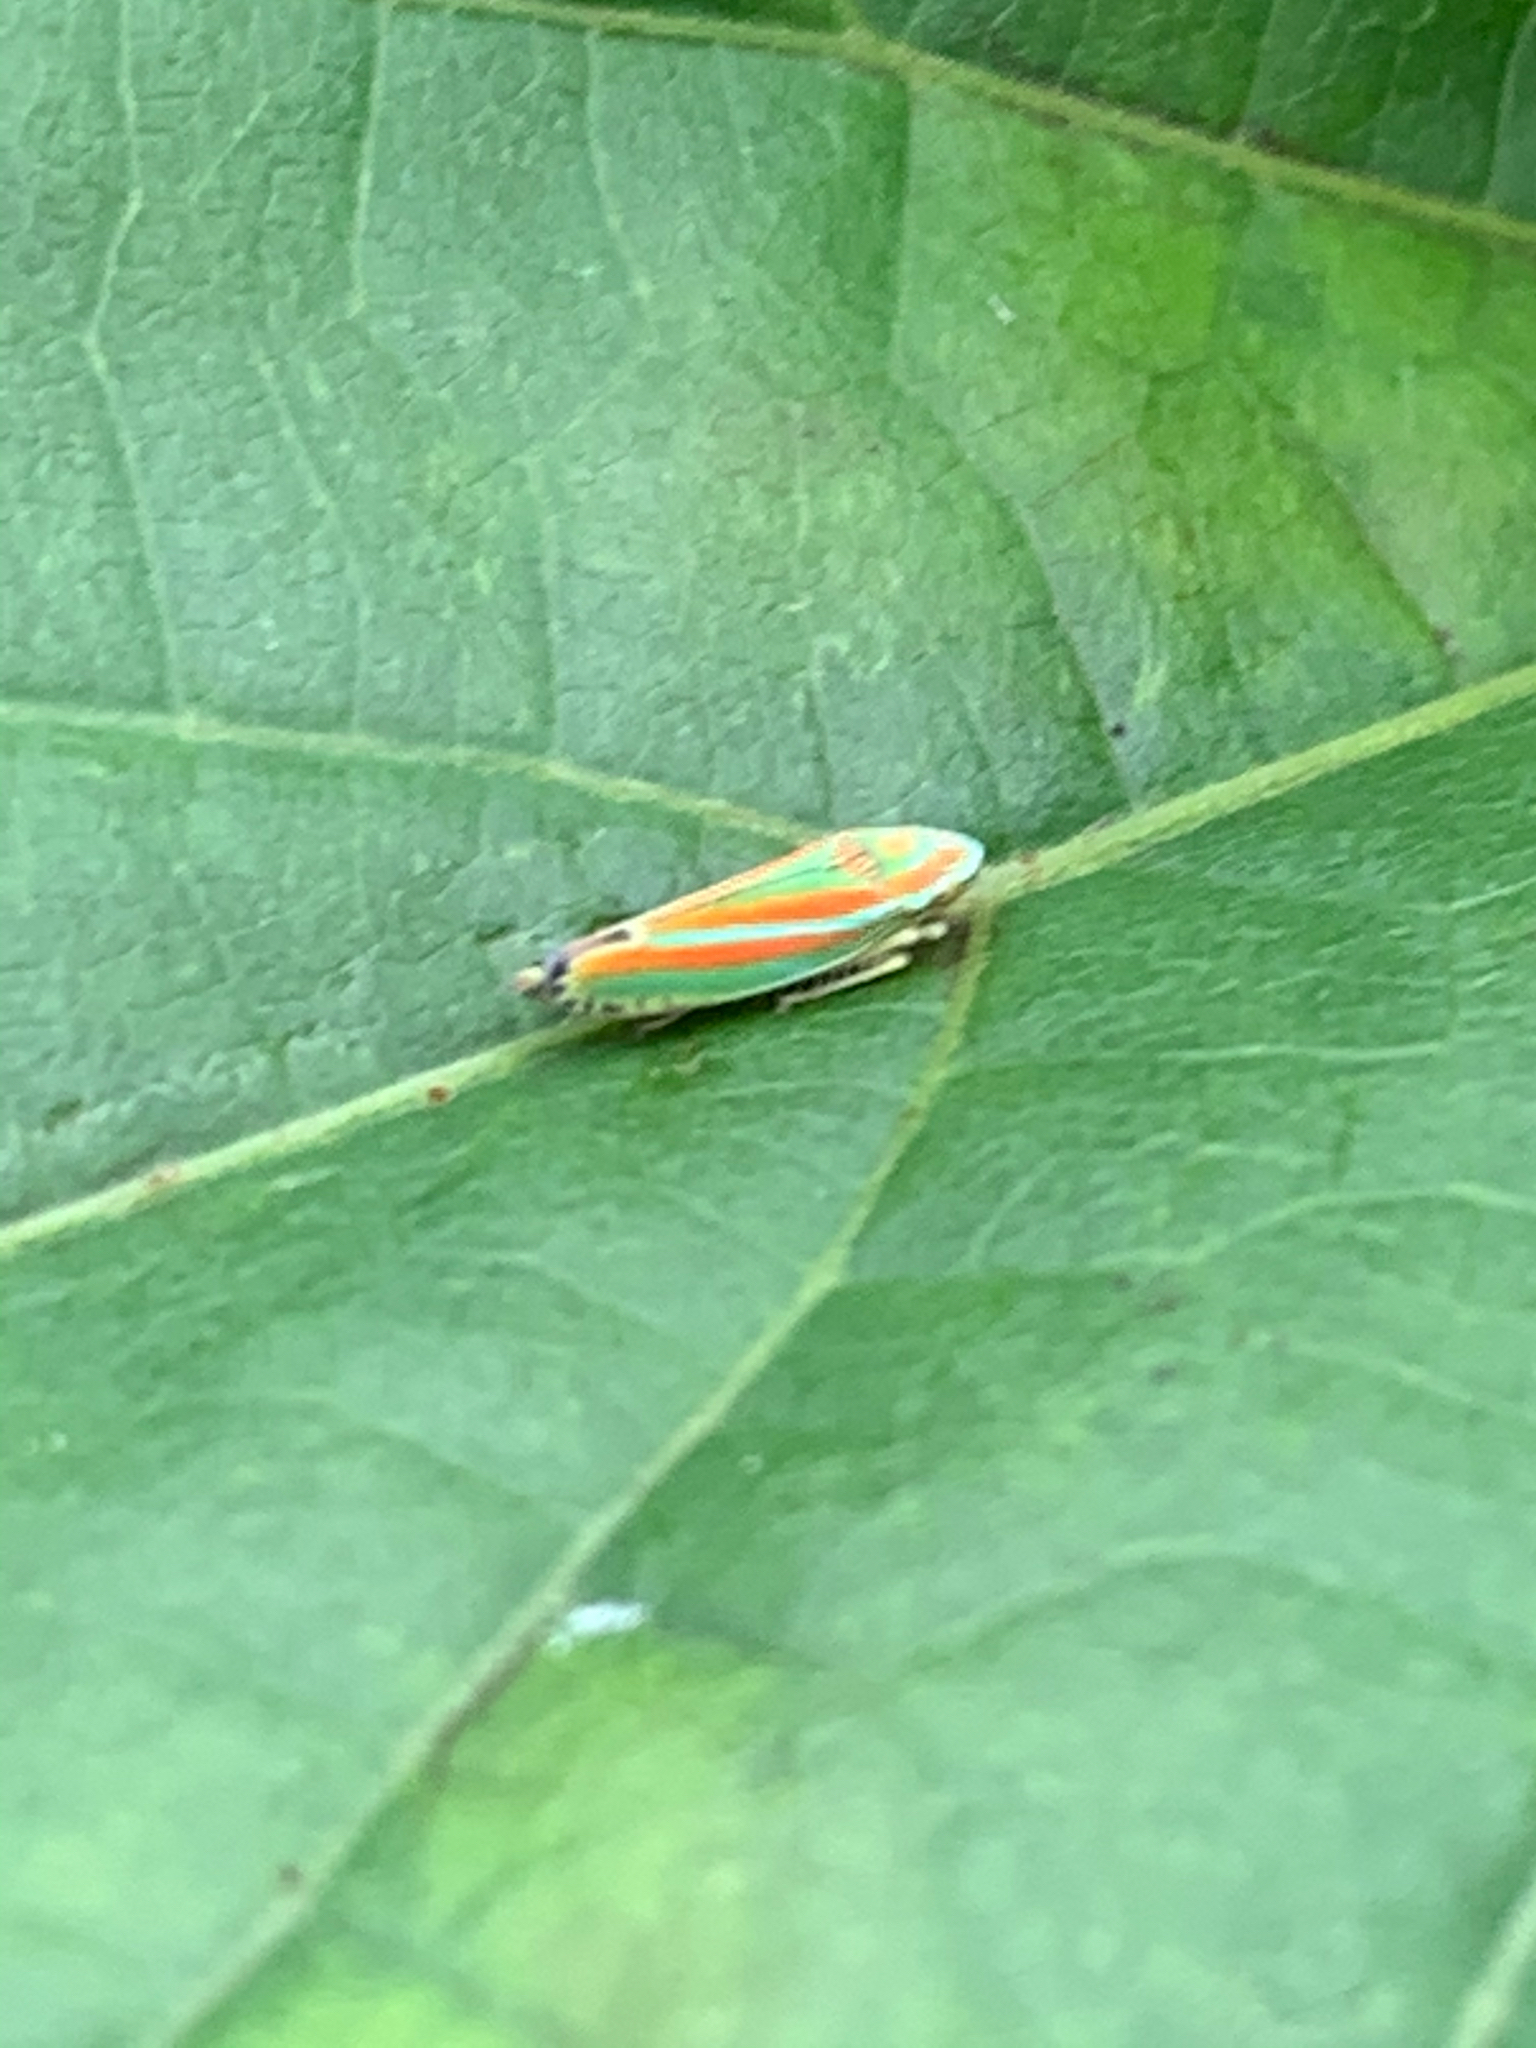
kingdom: Animalia
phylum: Arthropoda
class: Insecta
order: Hemiptera
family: Cicadellidae
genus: Graphocephala
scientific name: Graphocephala versuta
